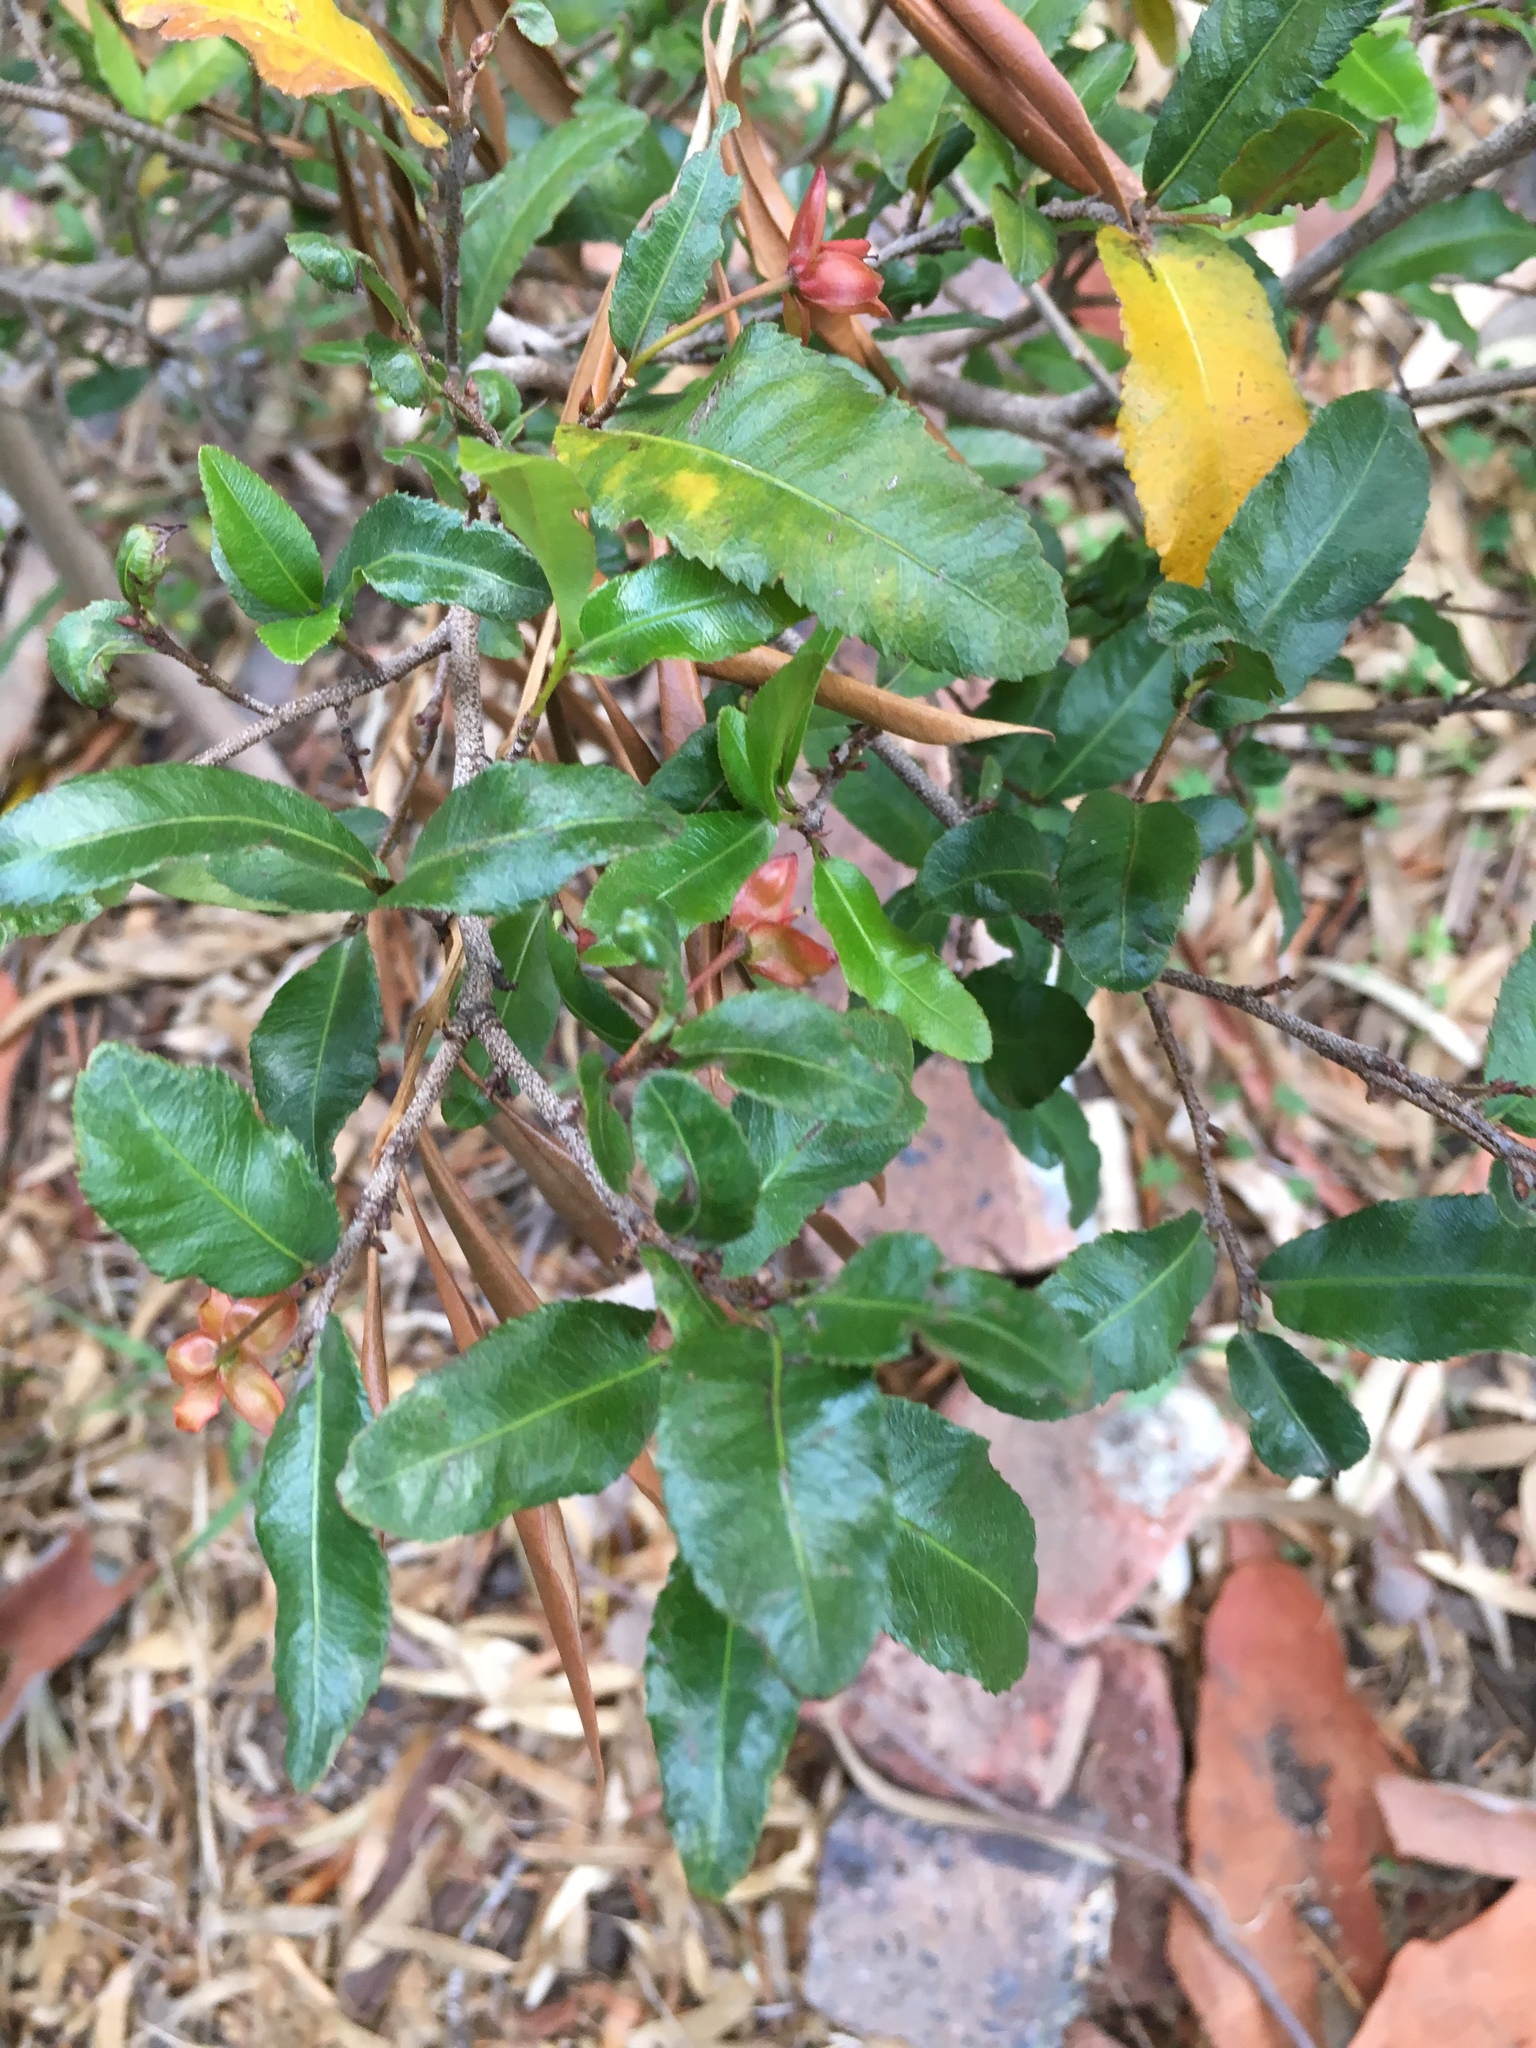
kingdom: Plantae
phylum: Tracheophyta
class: Magnoliopsida
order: Ericales
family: Ebenaceae
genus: Diospyros
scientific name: Diospyros whyteana
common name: Bladder-nut
